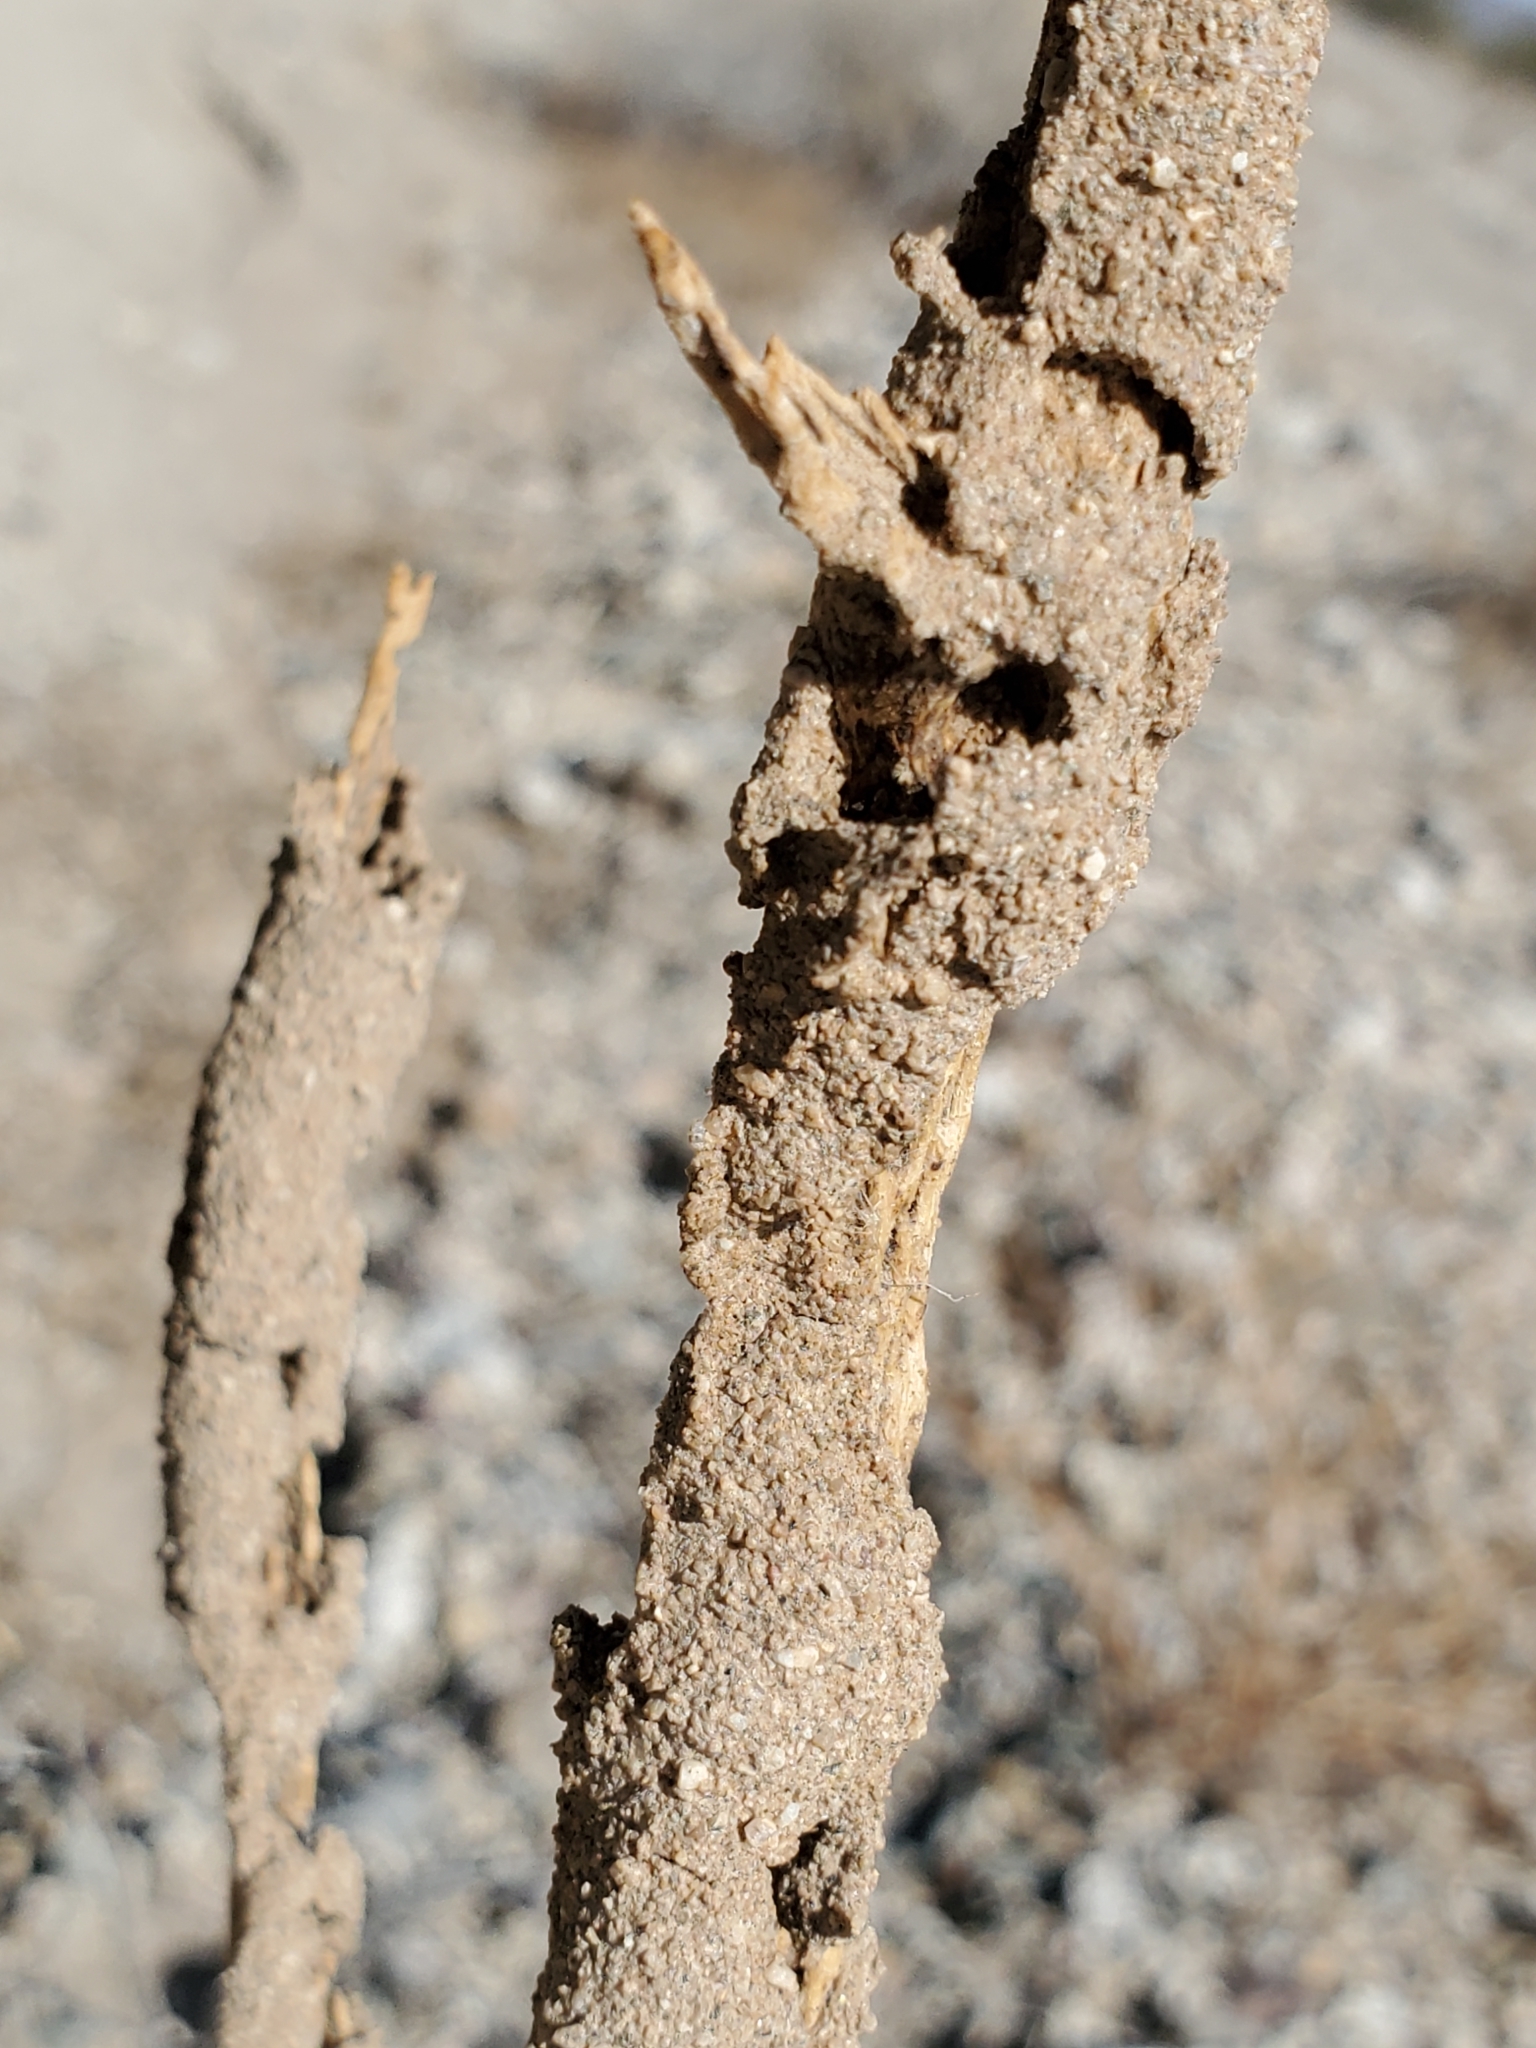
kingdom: Plantae
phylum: Tracheophyta
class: Magnoliopsida
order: Caryophyllales
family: Cactaceae
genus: Cylindropuntia
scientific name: Cylindropuntia ramosissima
